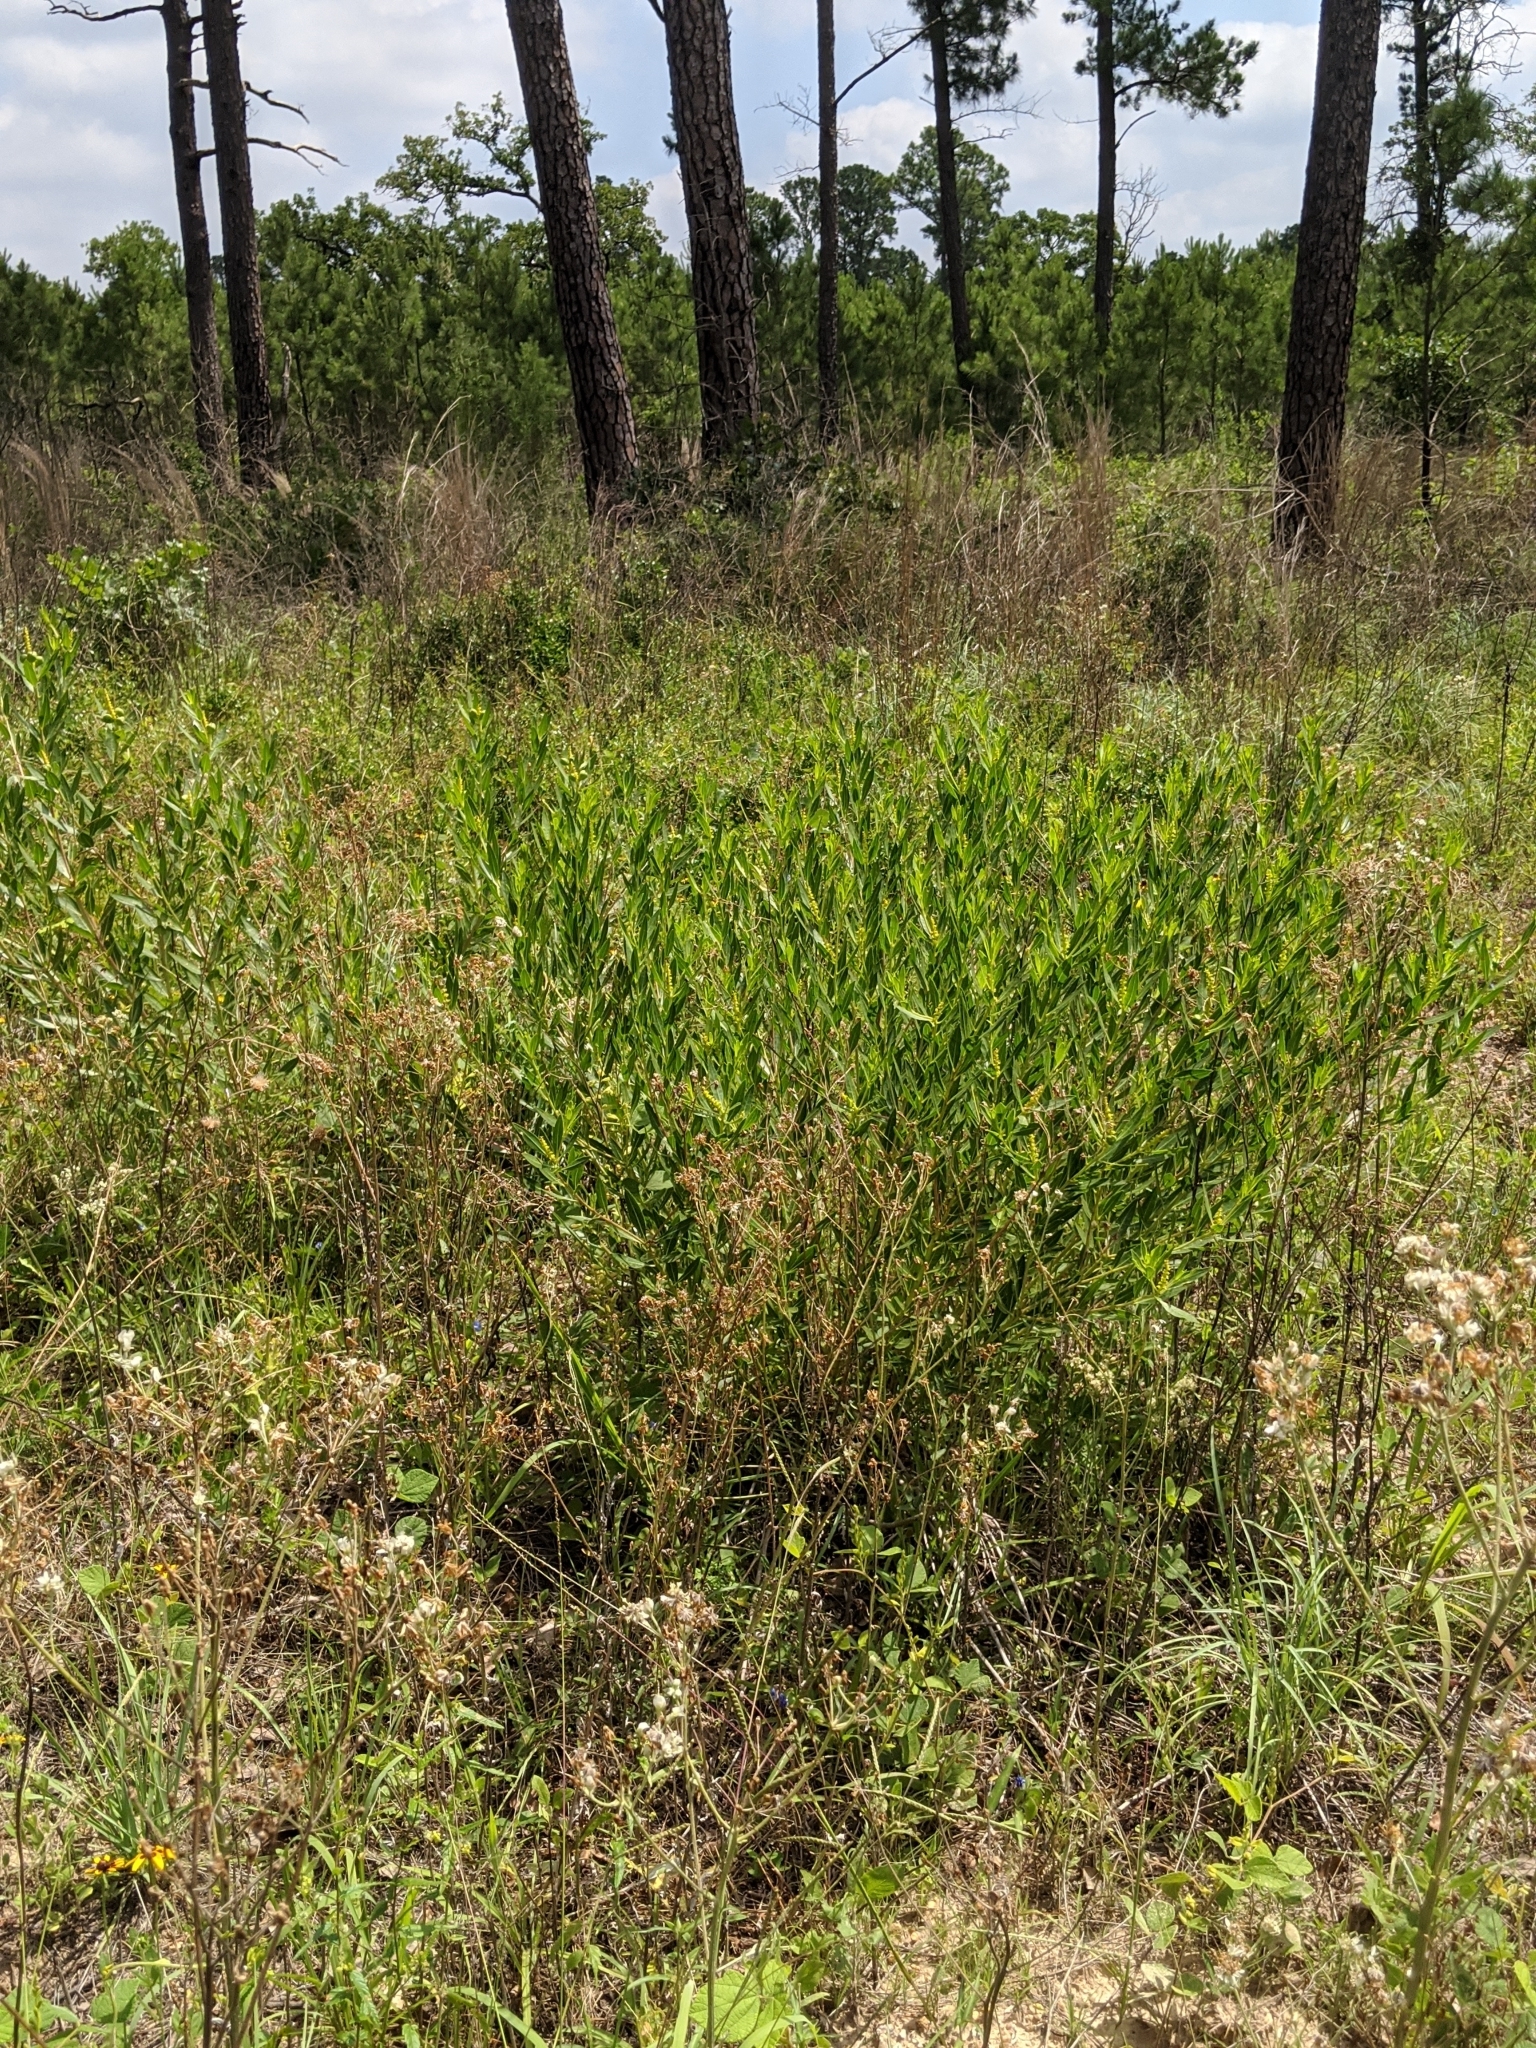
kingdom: Plantae
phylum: Tracheophyta
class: Magnoliopsida
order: Malpighiales
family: Euphorbiaceae
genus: Stillingia
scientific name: Stillingia sylvatica
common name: Queen's-delight
